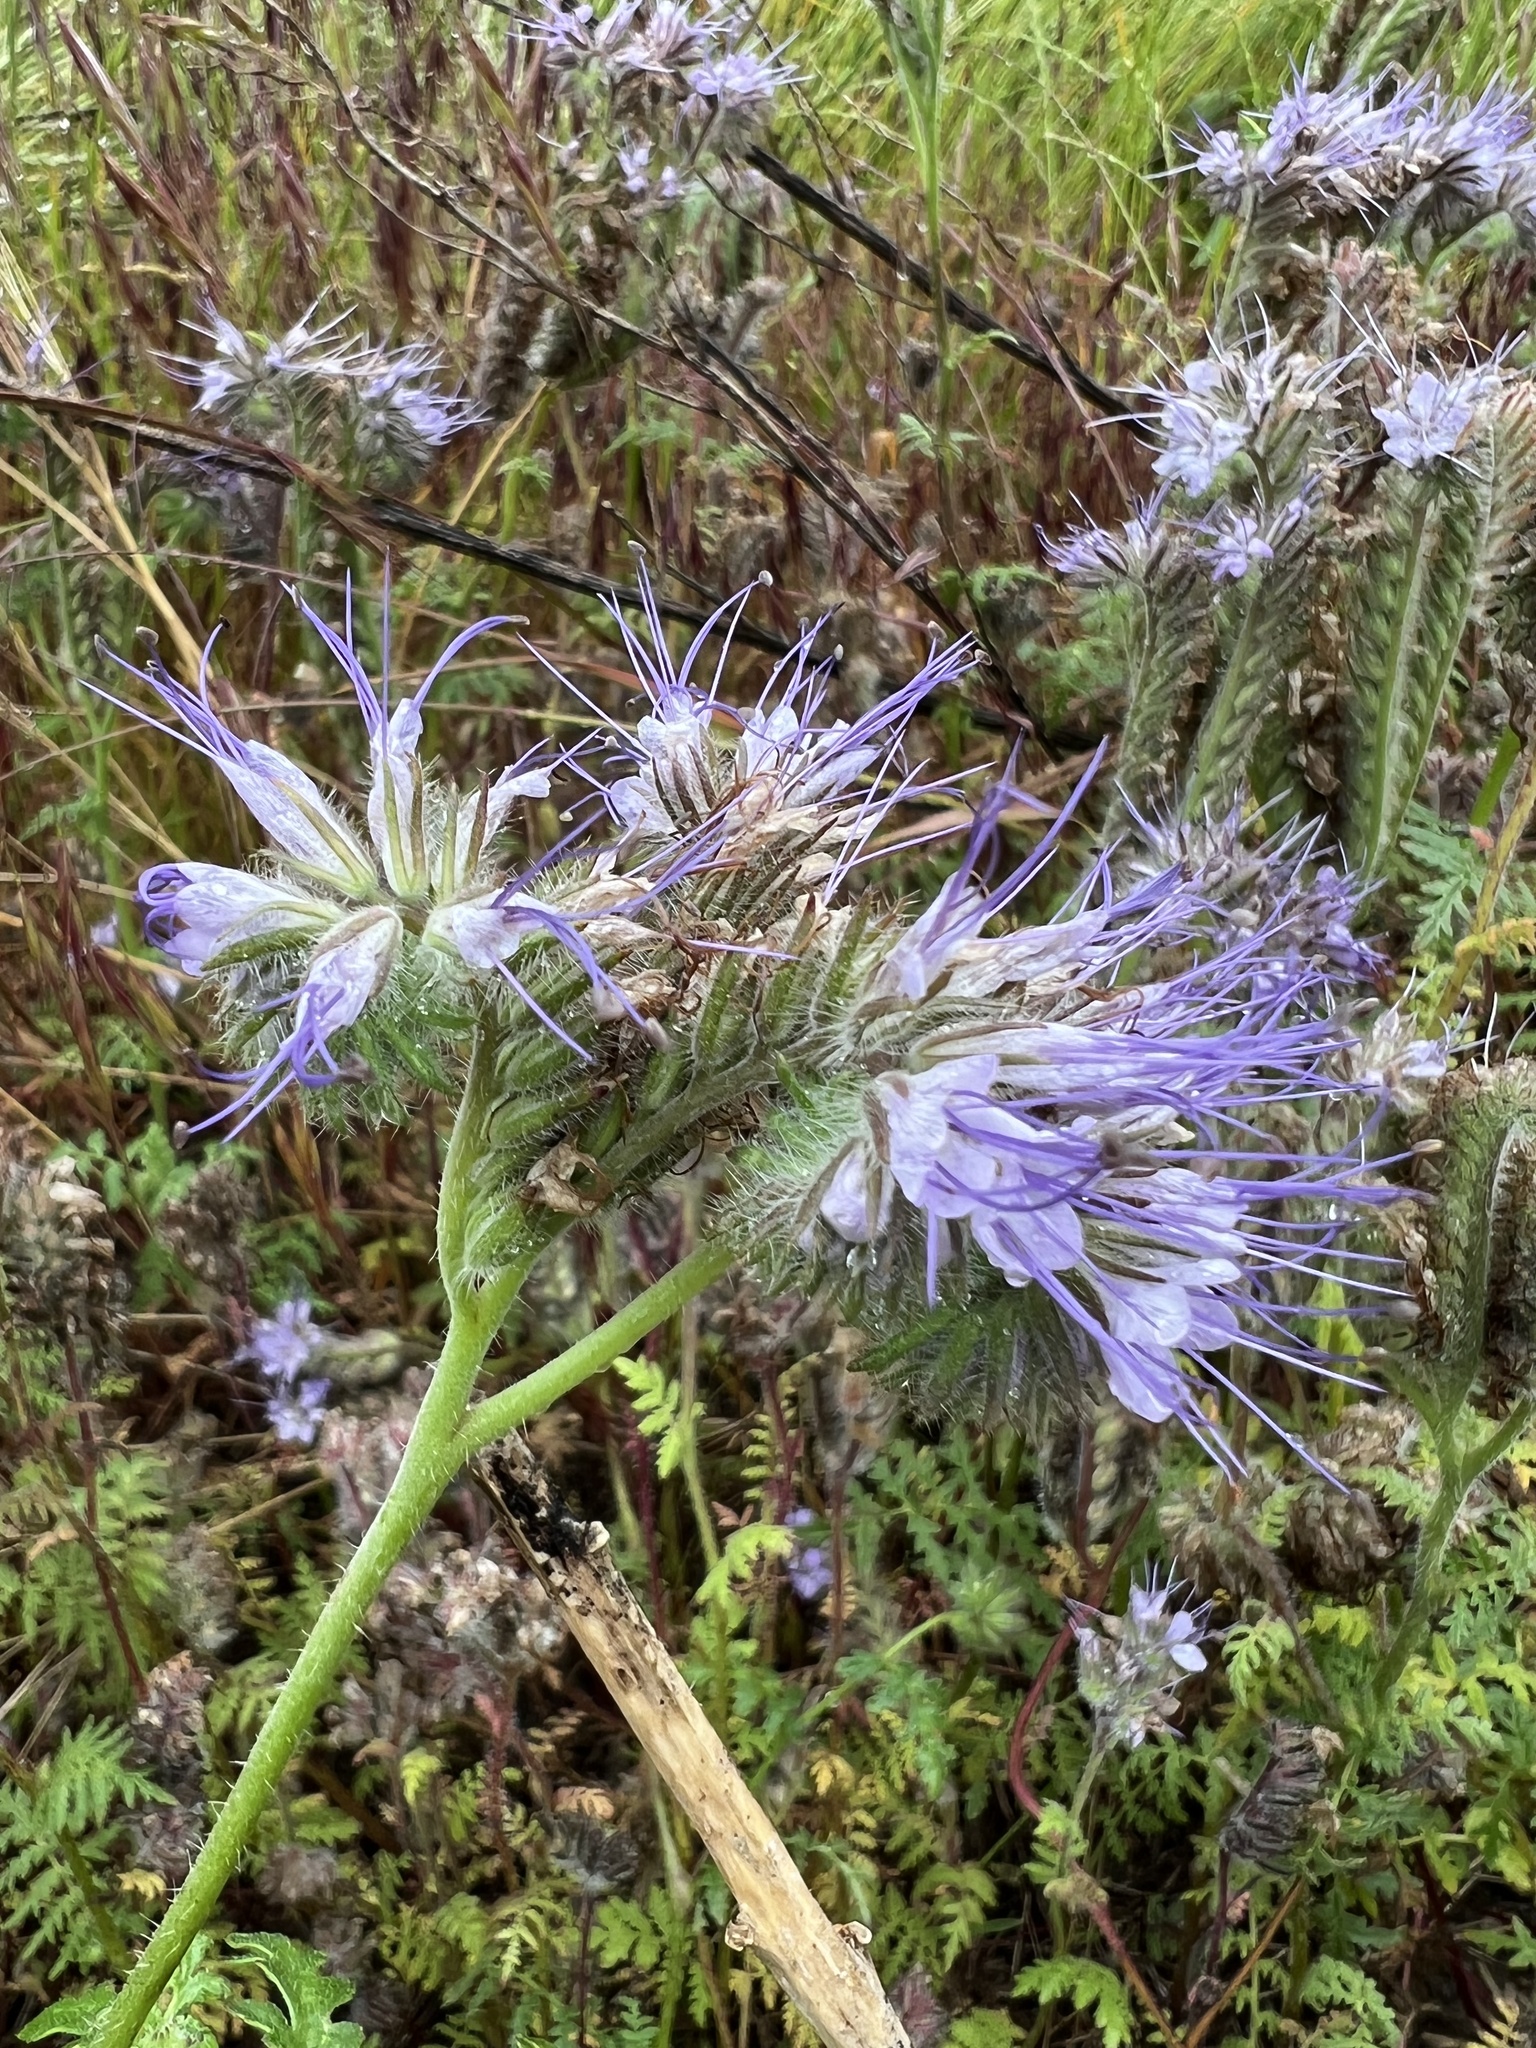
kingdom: Plantae
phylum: Tracheophyta
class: Magnoliopsida
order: Boraginales
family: Hydrophyllaceae
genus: Phacelia
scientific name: Phacelia tanacetifolia
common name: Phacelia
